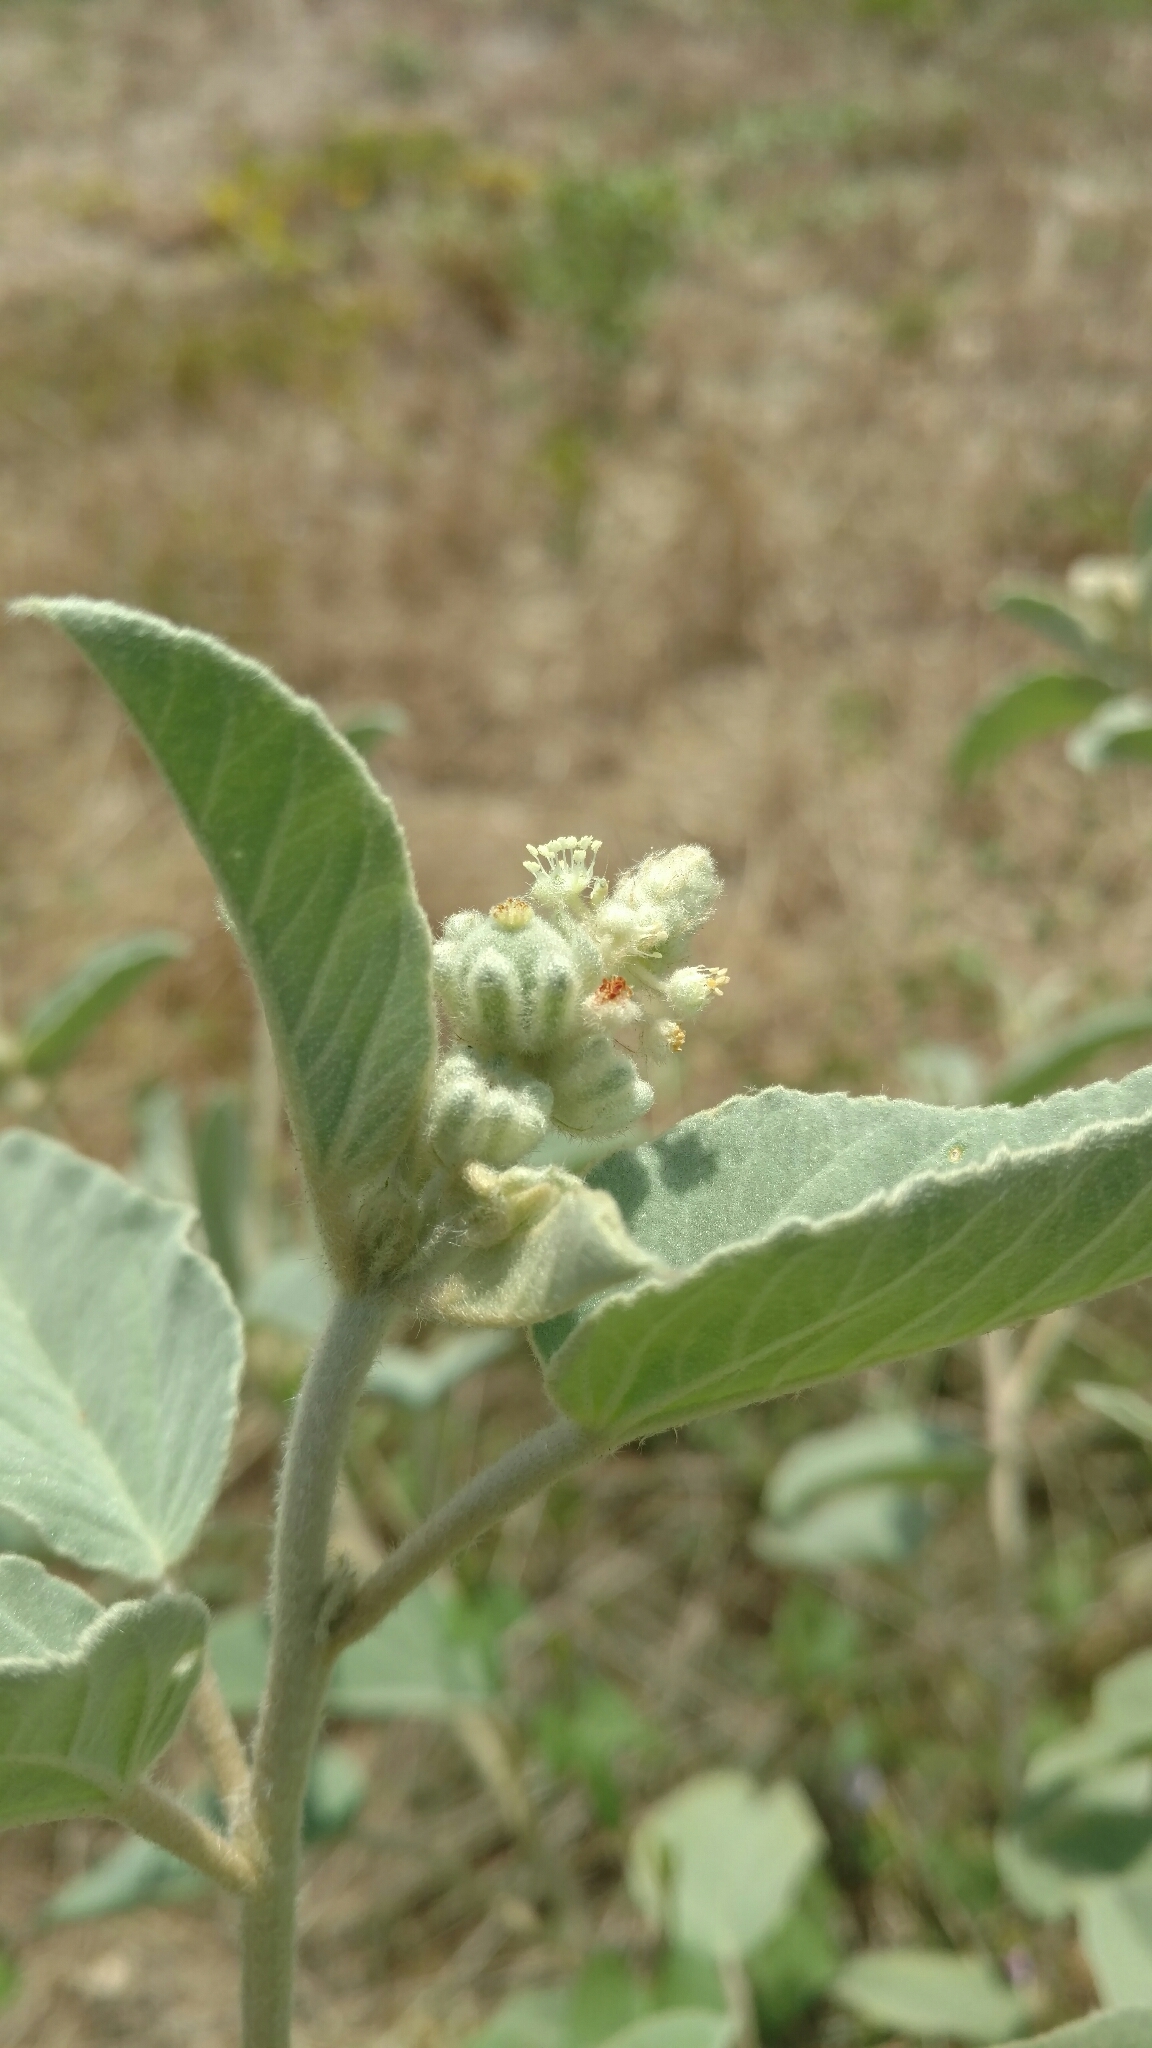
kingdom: Plantae
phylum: Tracheophyta
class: Magnoliopsida
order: Malpighiales
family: Euphorbiaceae
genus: Croton
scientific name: Croton lindheimeri
